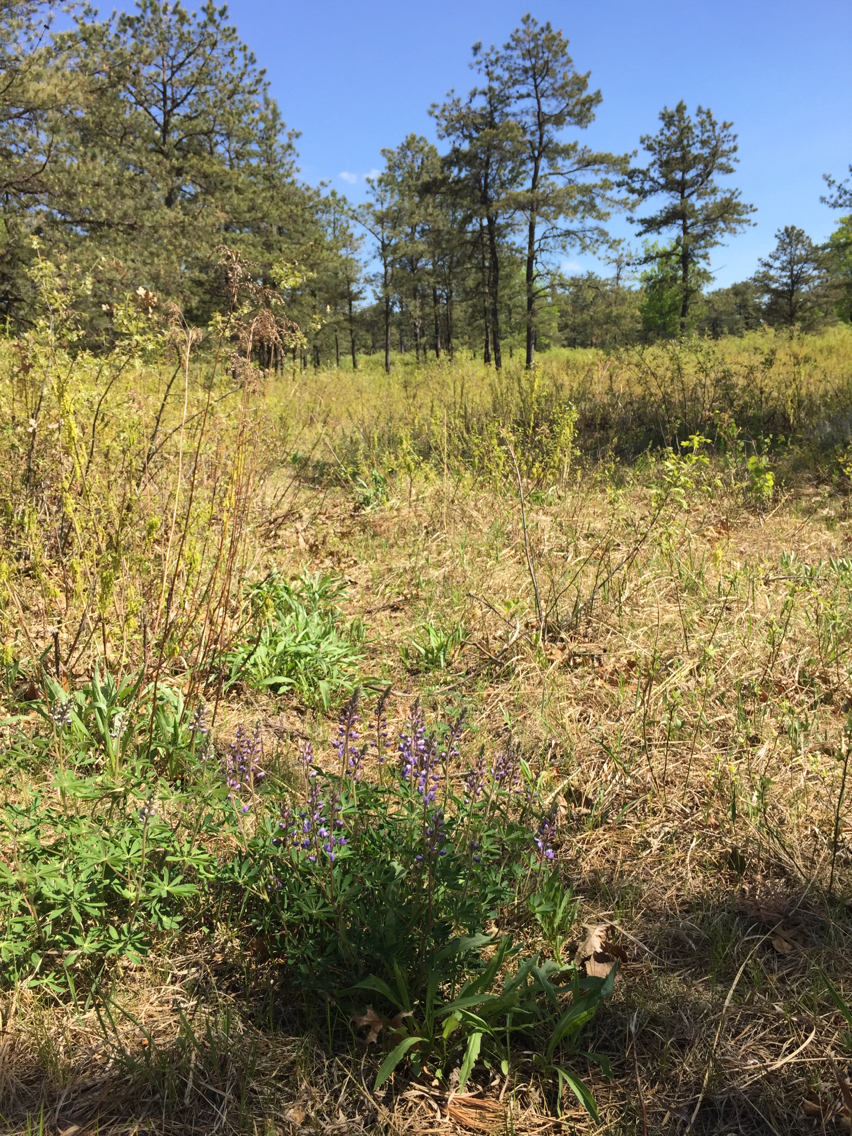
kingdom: Plantae
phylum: Tracheophyta
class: Magnoliopsida
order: Fabales
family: Fabaceae
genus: Lupinus
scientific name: Lupinus perennis
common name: Sundial lupine
